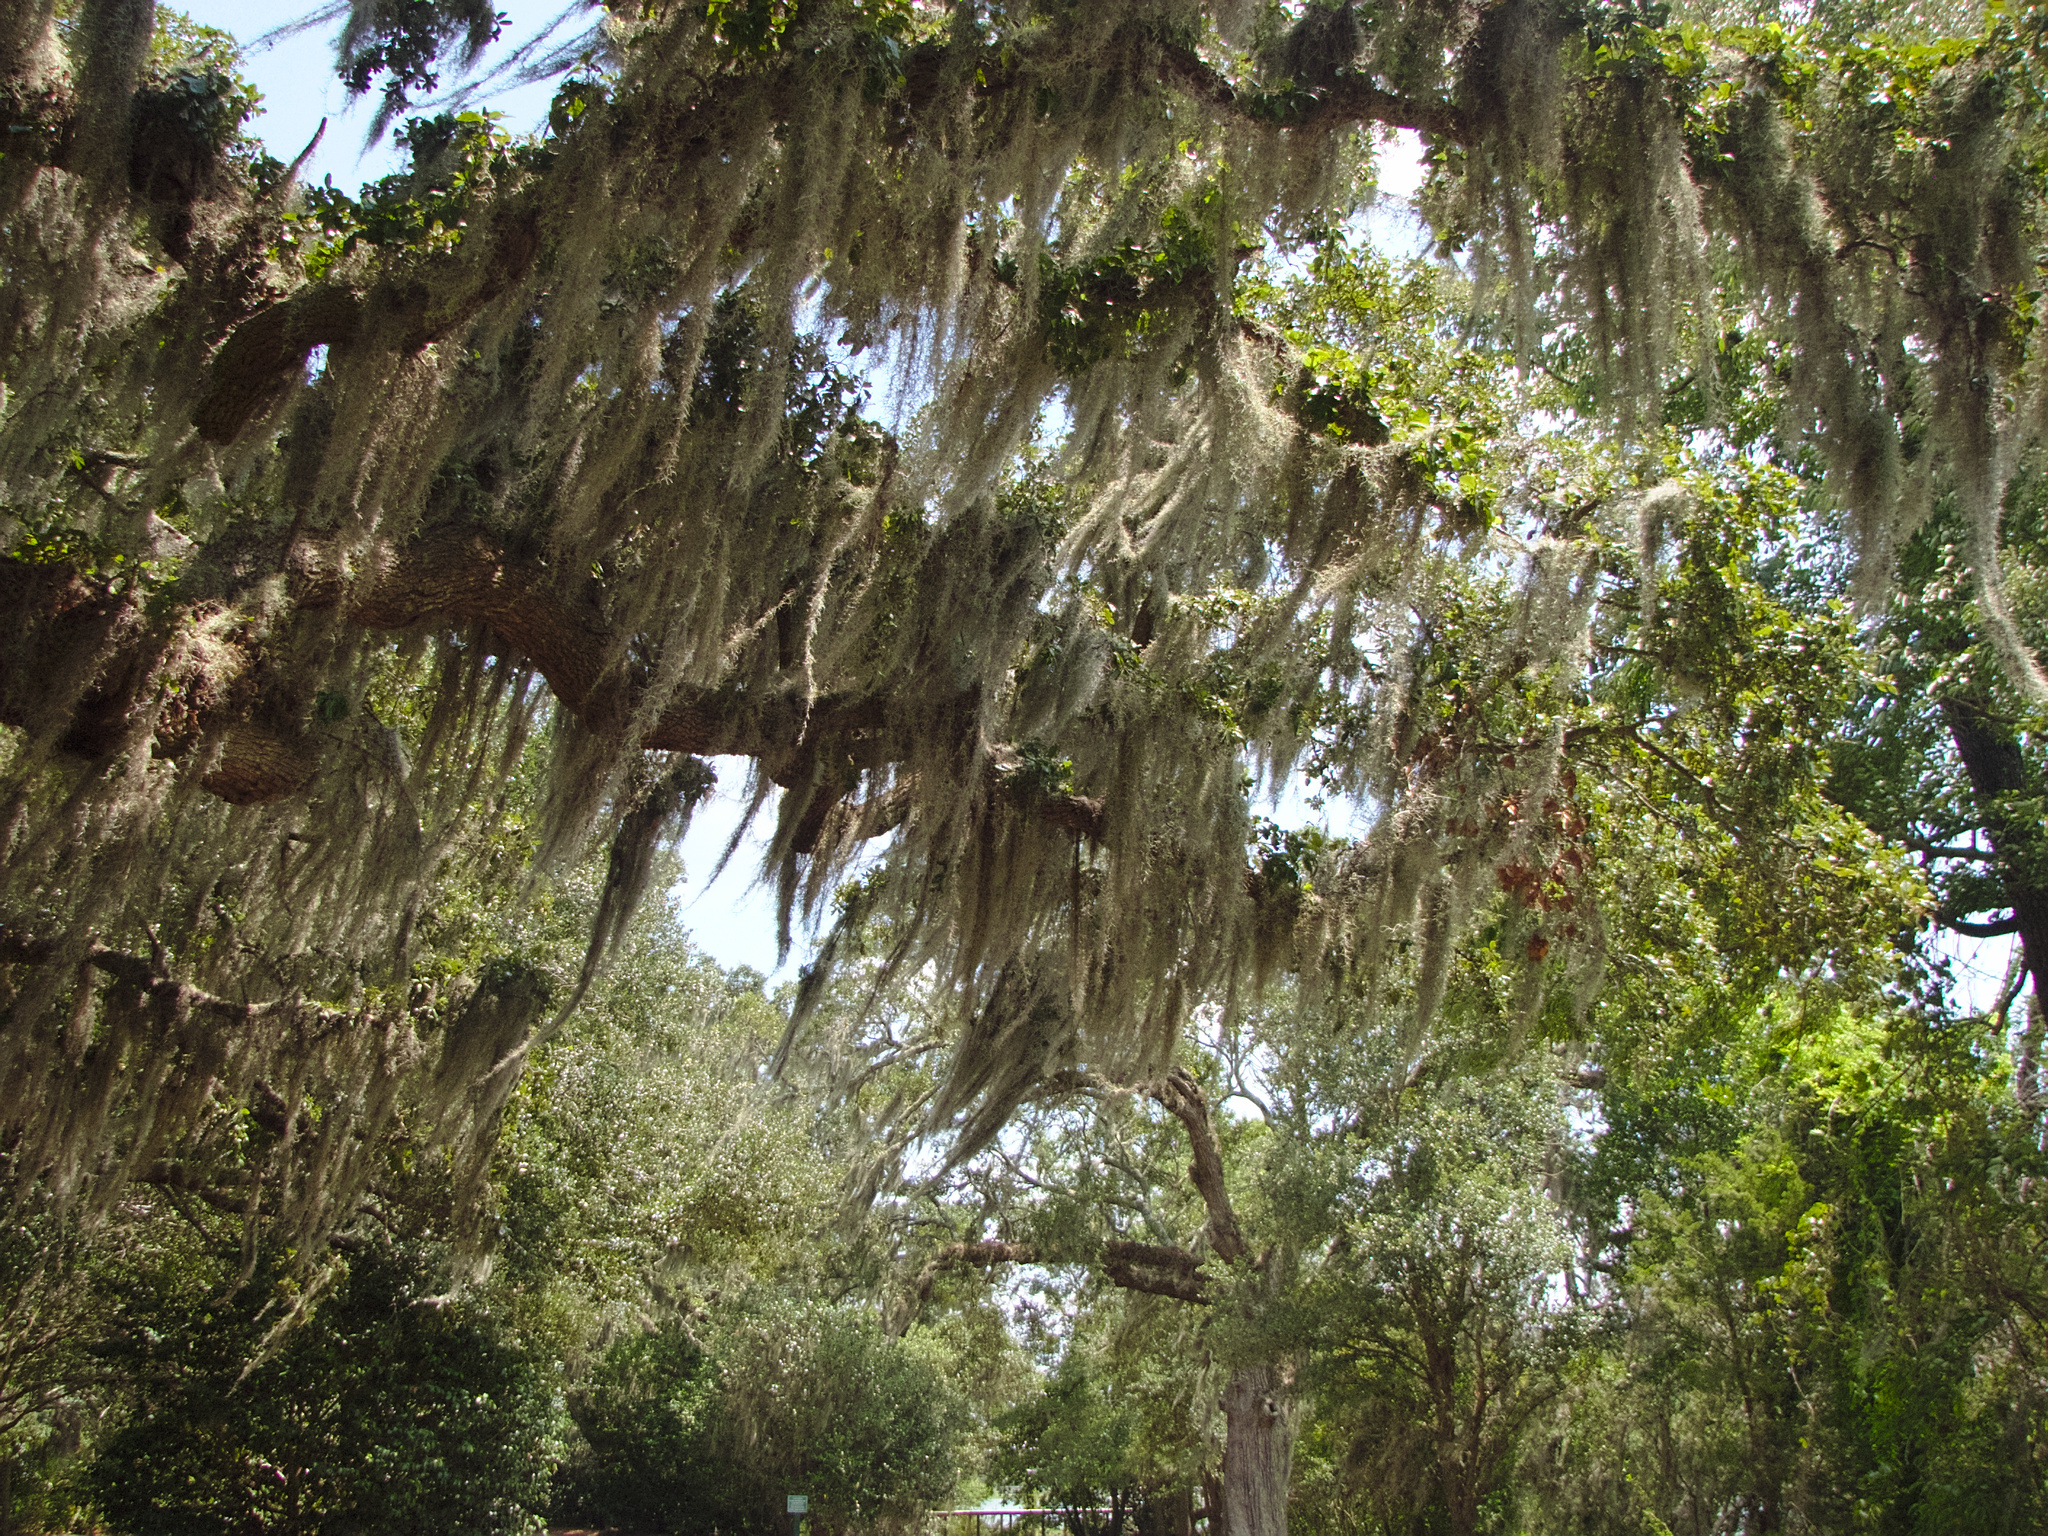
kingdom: Plantae
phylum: Tracheophyta
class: Liliopsida
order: Poales
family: Bromeliaceae
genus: Tillandsia
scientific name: Tillandsia usneoides
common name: Spanish moss
